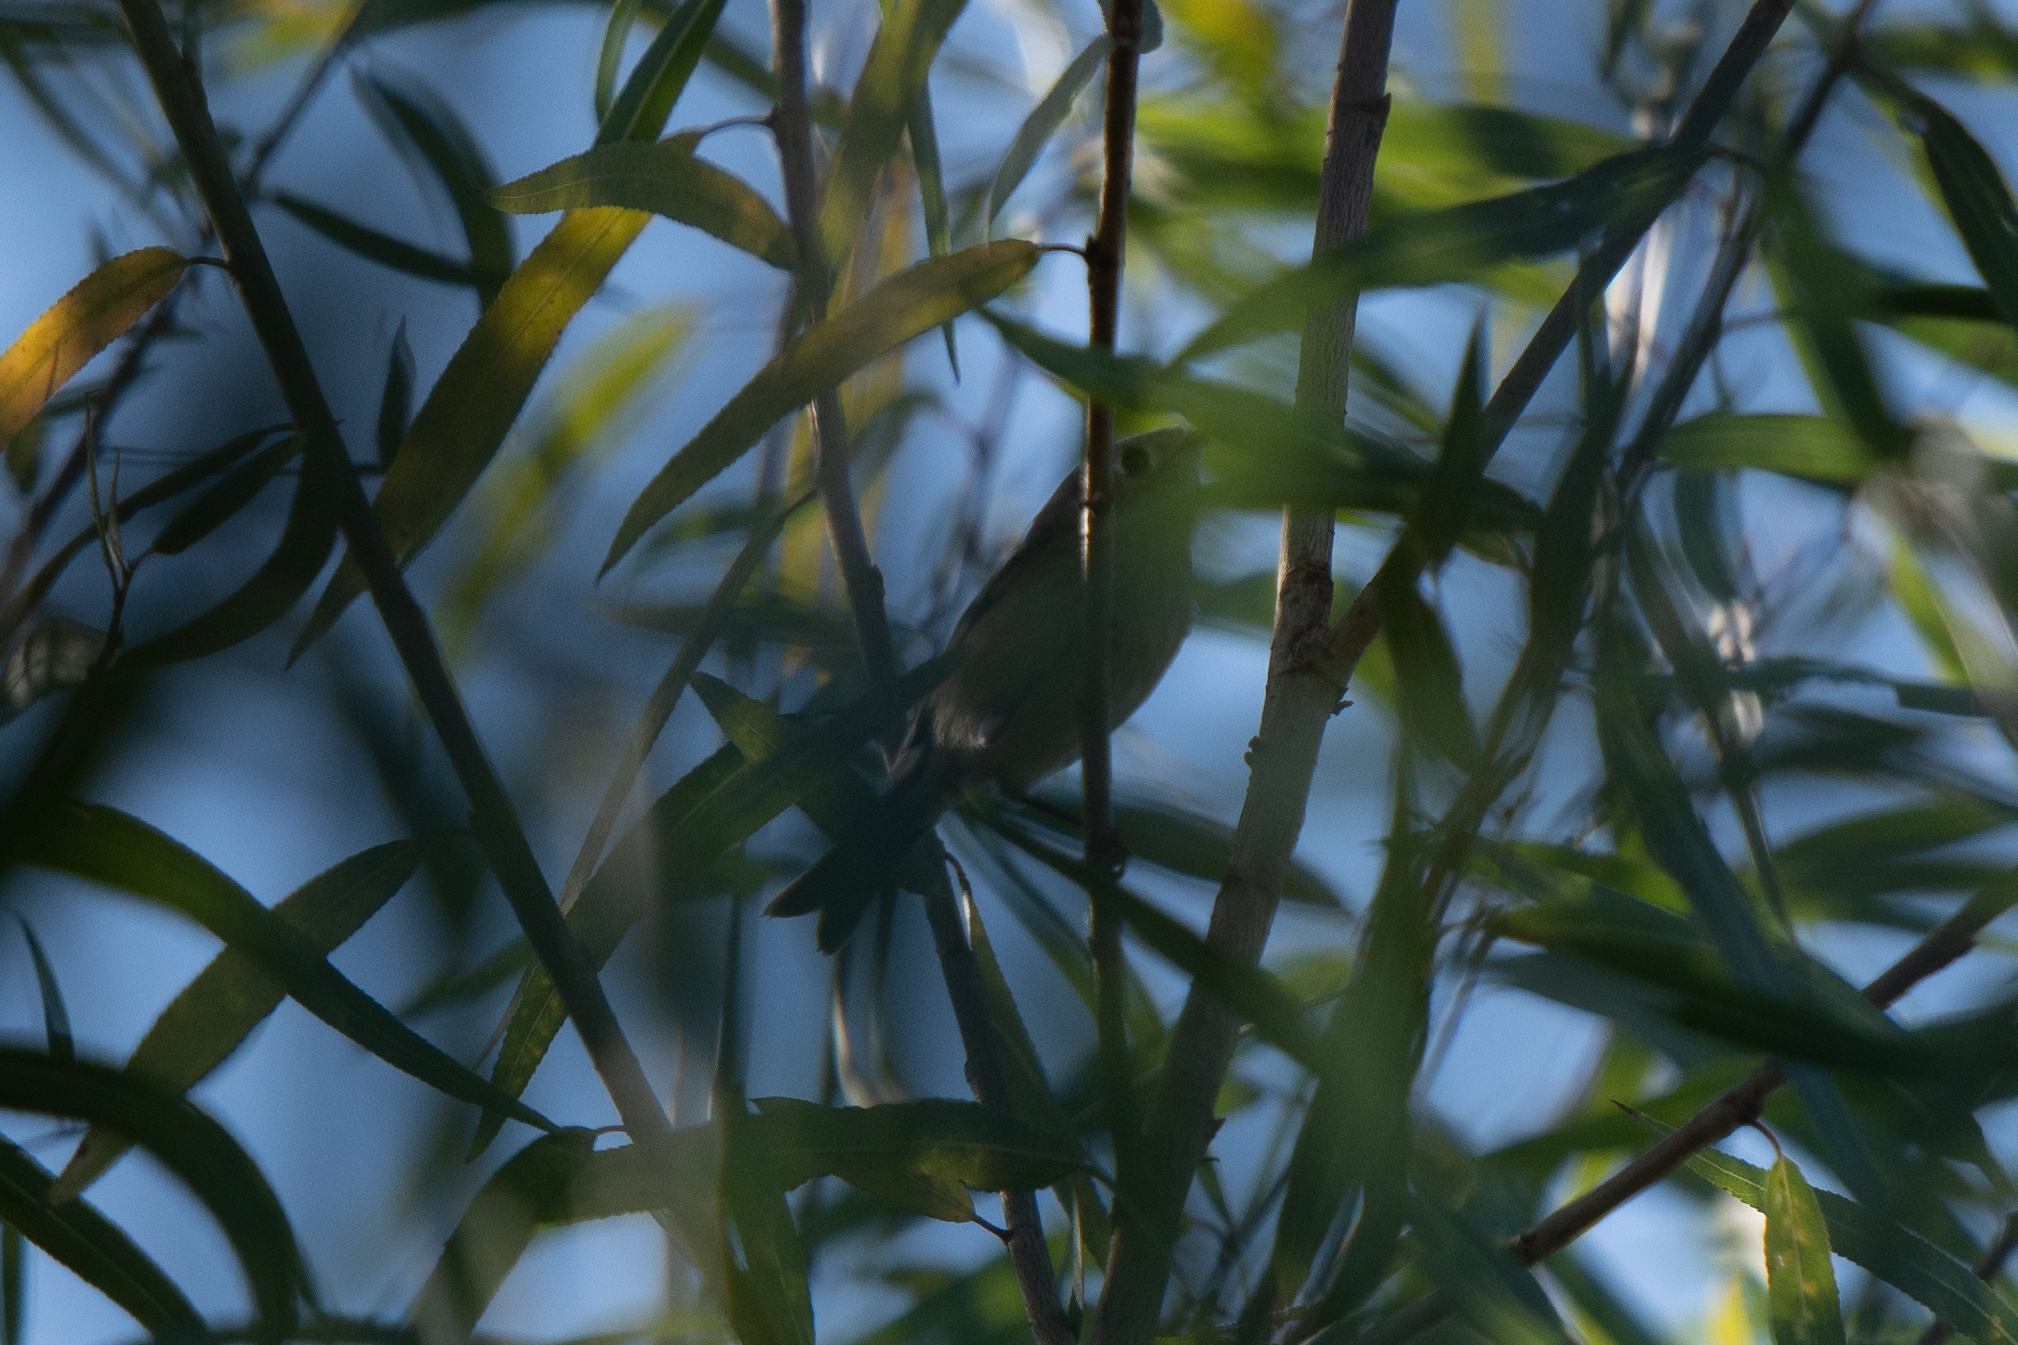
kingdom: Animalia
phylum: Chordata
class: Aves
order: Passeriformes
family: Regulidae
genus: Regulus
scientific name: Regulus calendula
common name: Ruby-crowned kinglet
